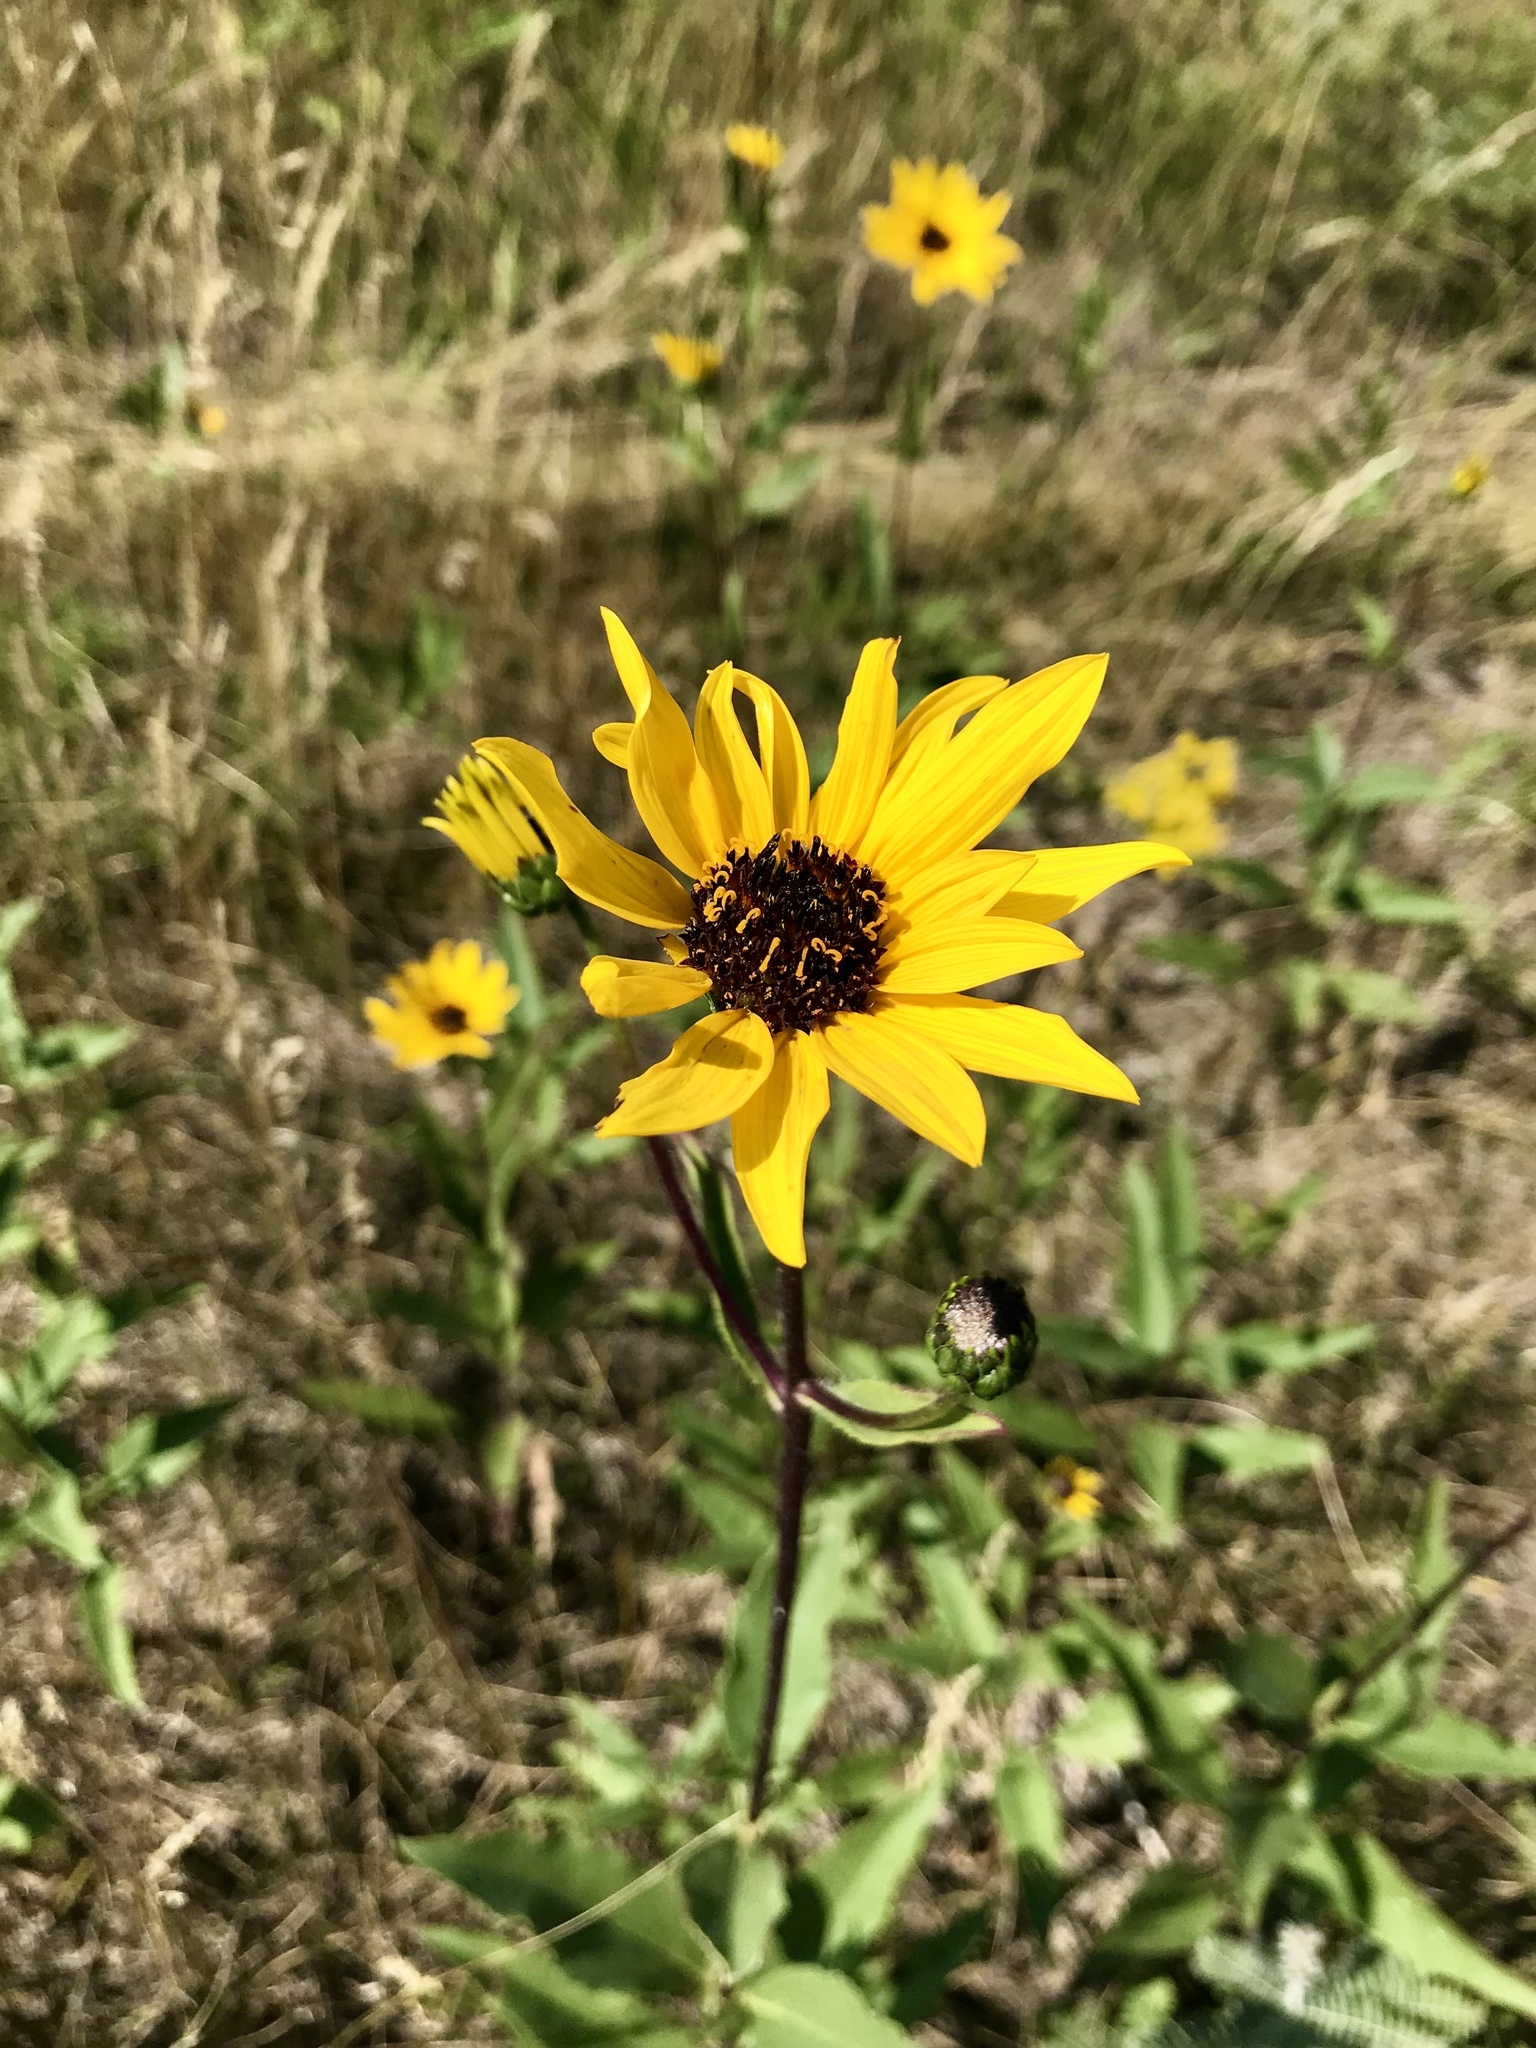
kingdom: Plantae
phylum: Tracheophyta
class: Magnoliopsida
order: Asterales
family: Asteraceae
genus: Helianthus
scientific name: Helianthus pauciflorus
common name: Stiff sunflower
